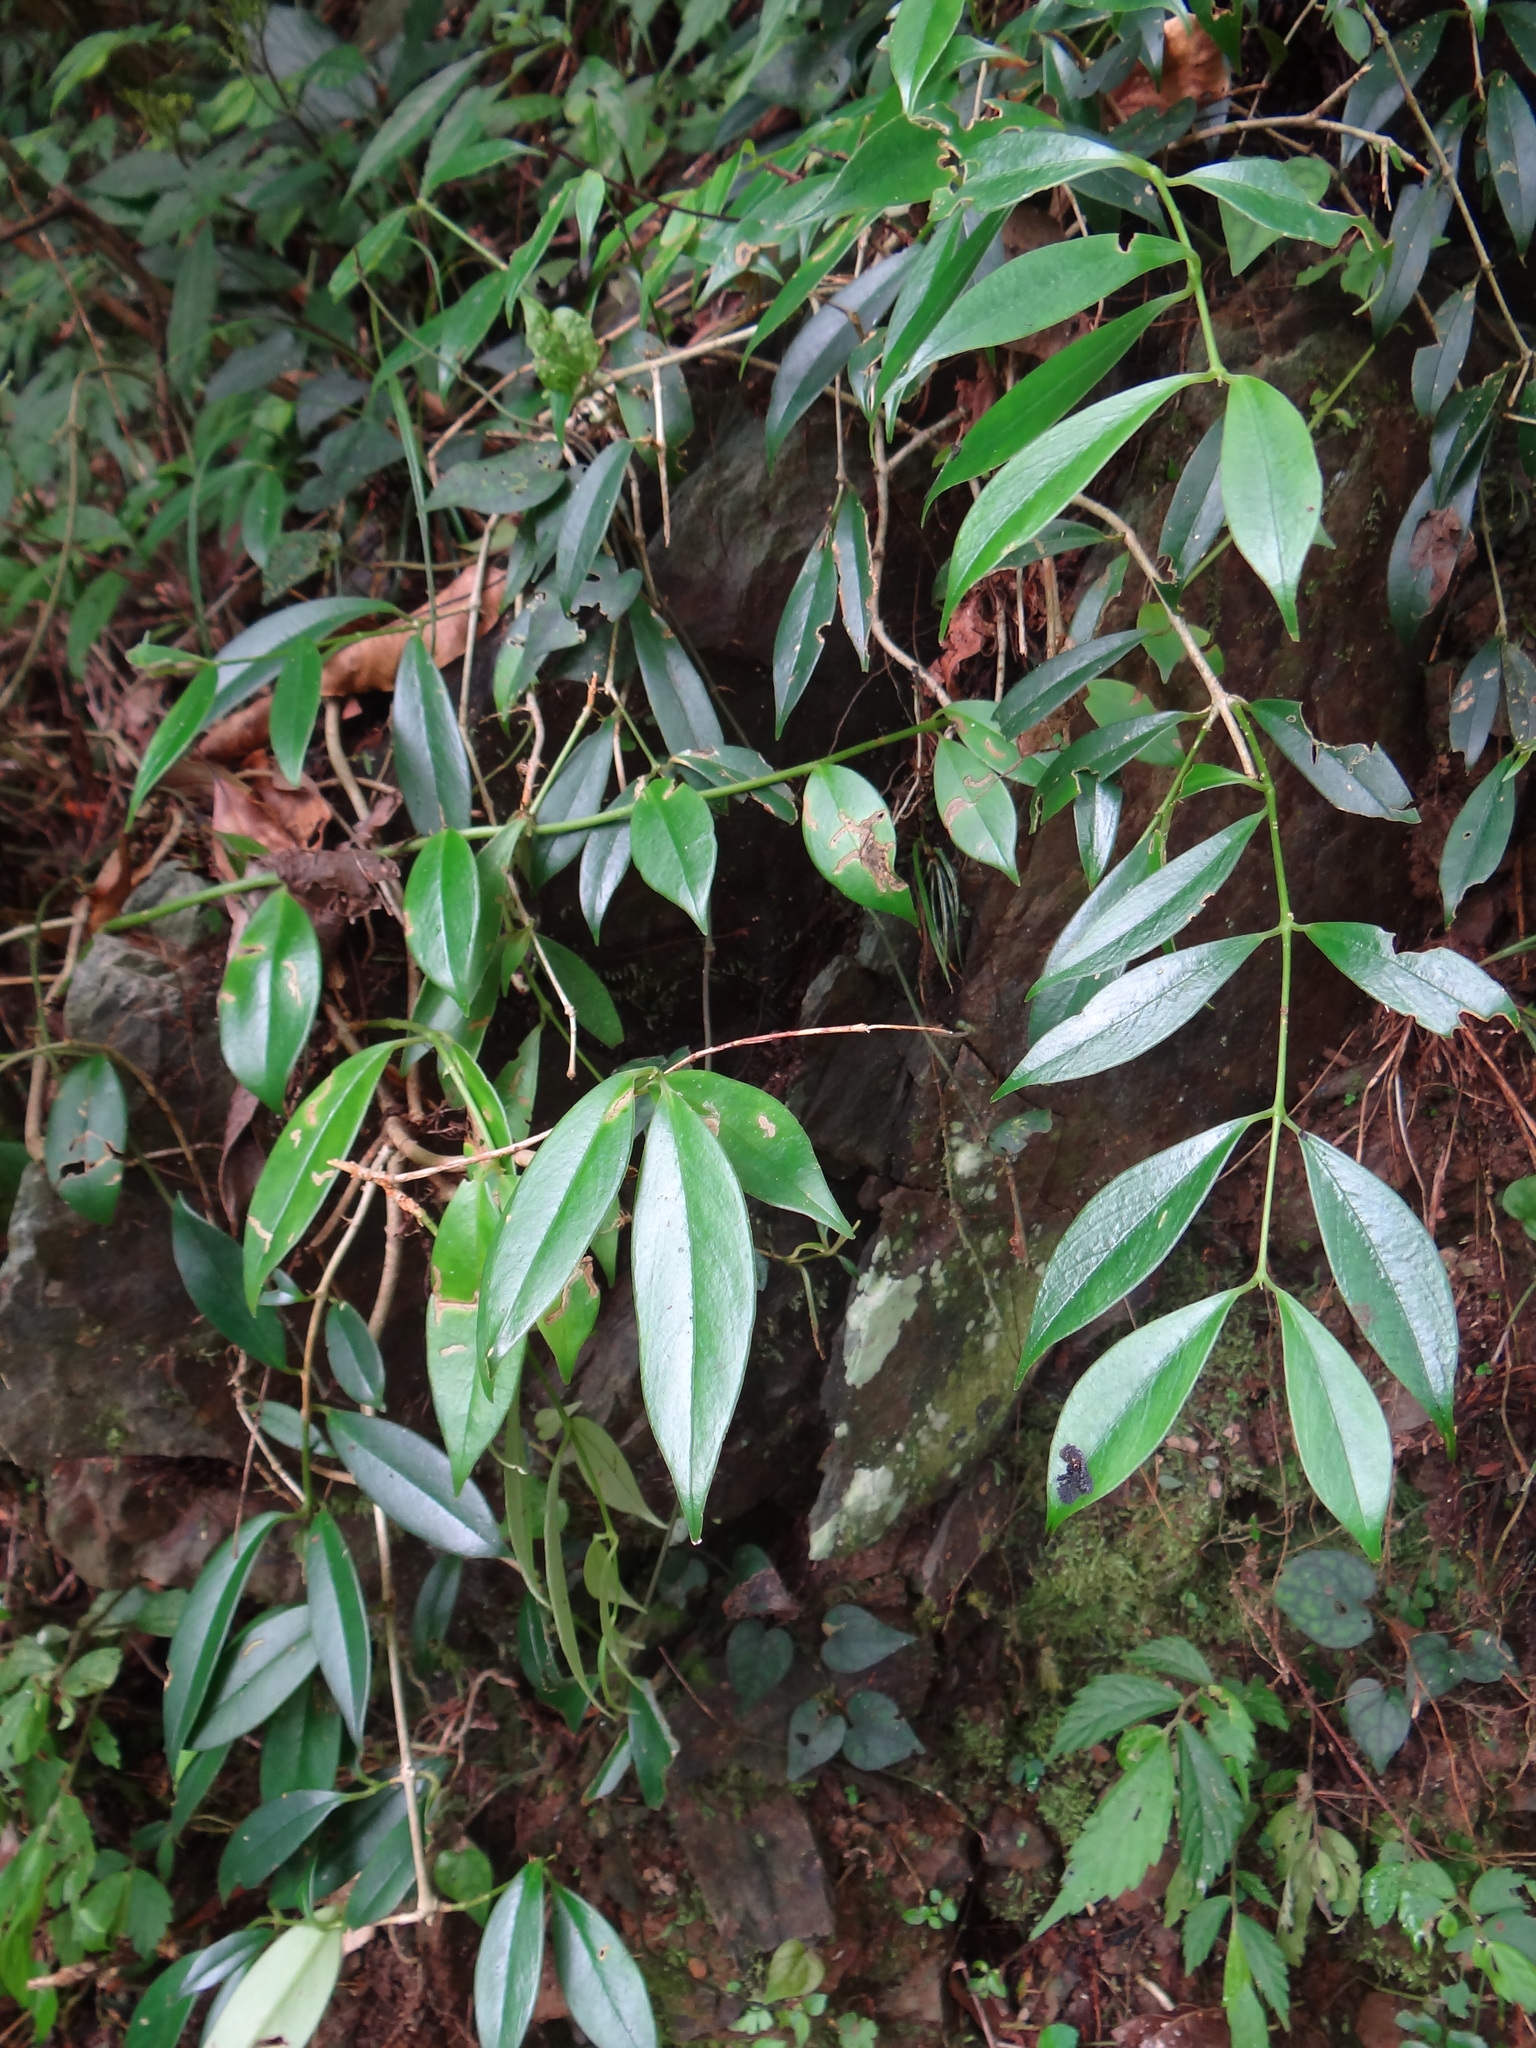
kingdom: Plantae
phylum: Tracheophyta
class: Magnoliopsida
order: Lamiales
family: Gesneriaceae
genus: Aeschynanthus
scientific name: Aeschynanthus acuminatus
